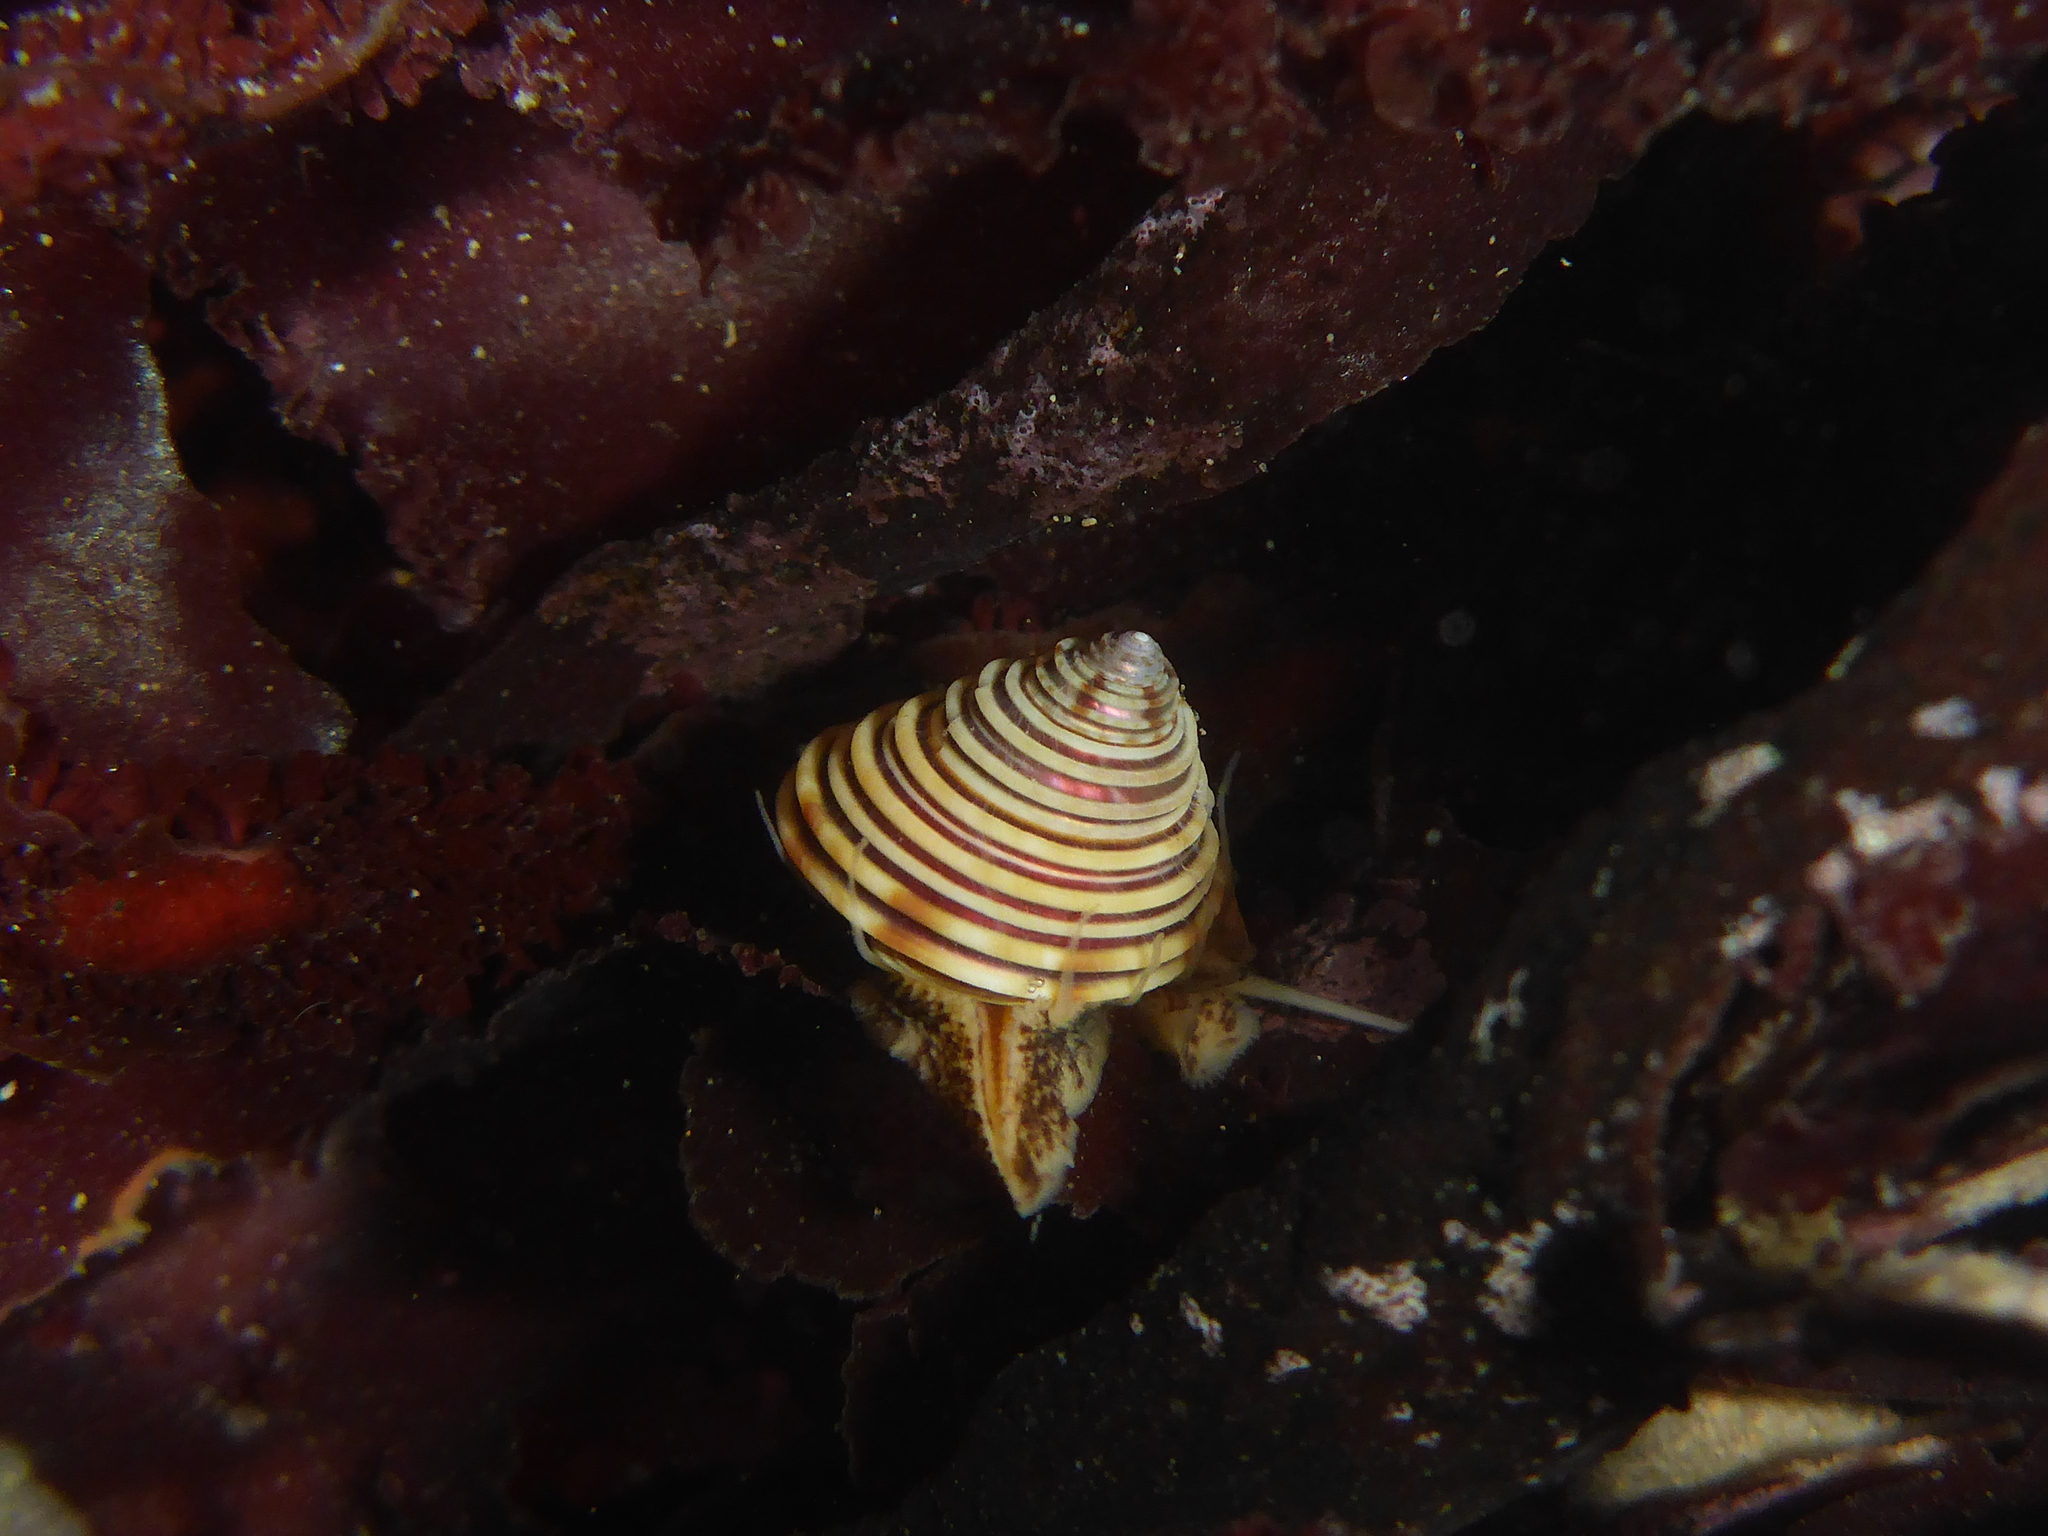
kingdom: Animalia
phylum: Mollusca
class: Gastropoda
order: Trochida
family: Calliostomatidae
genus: Calliostoma
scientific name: Calliostoma canaliculatum
